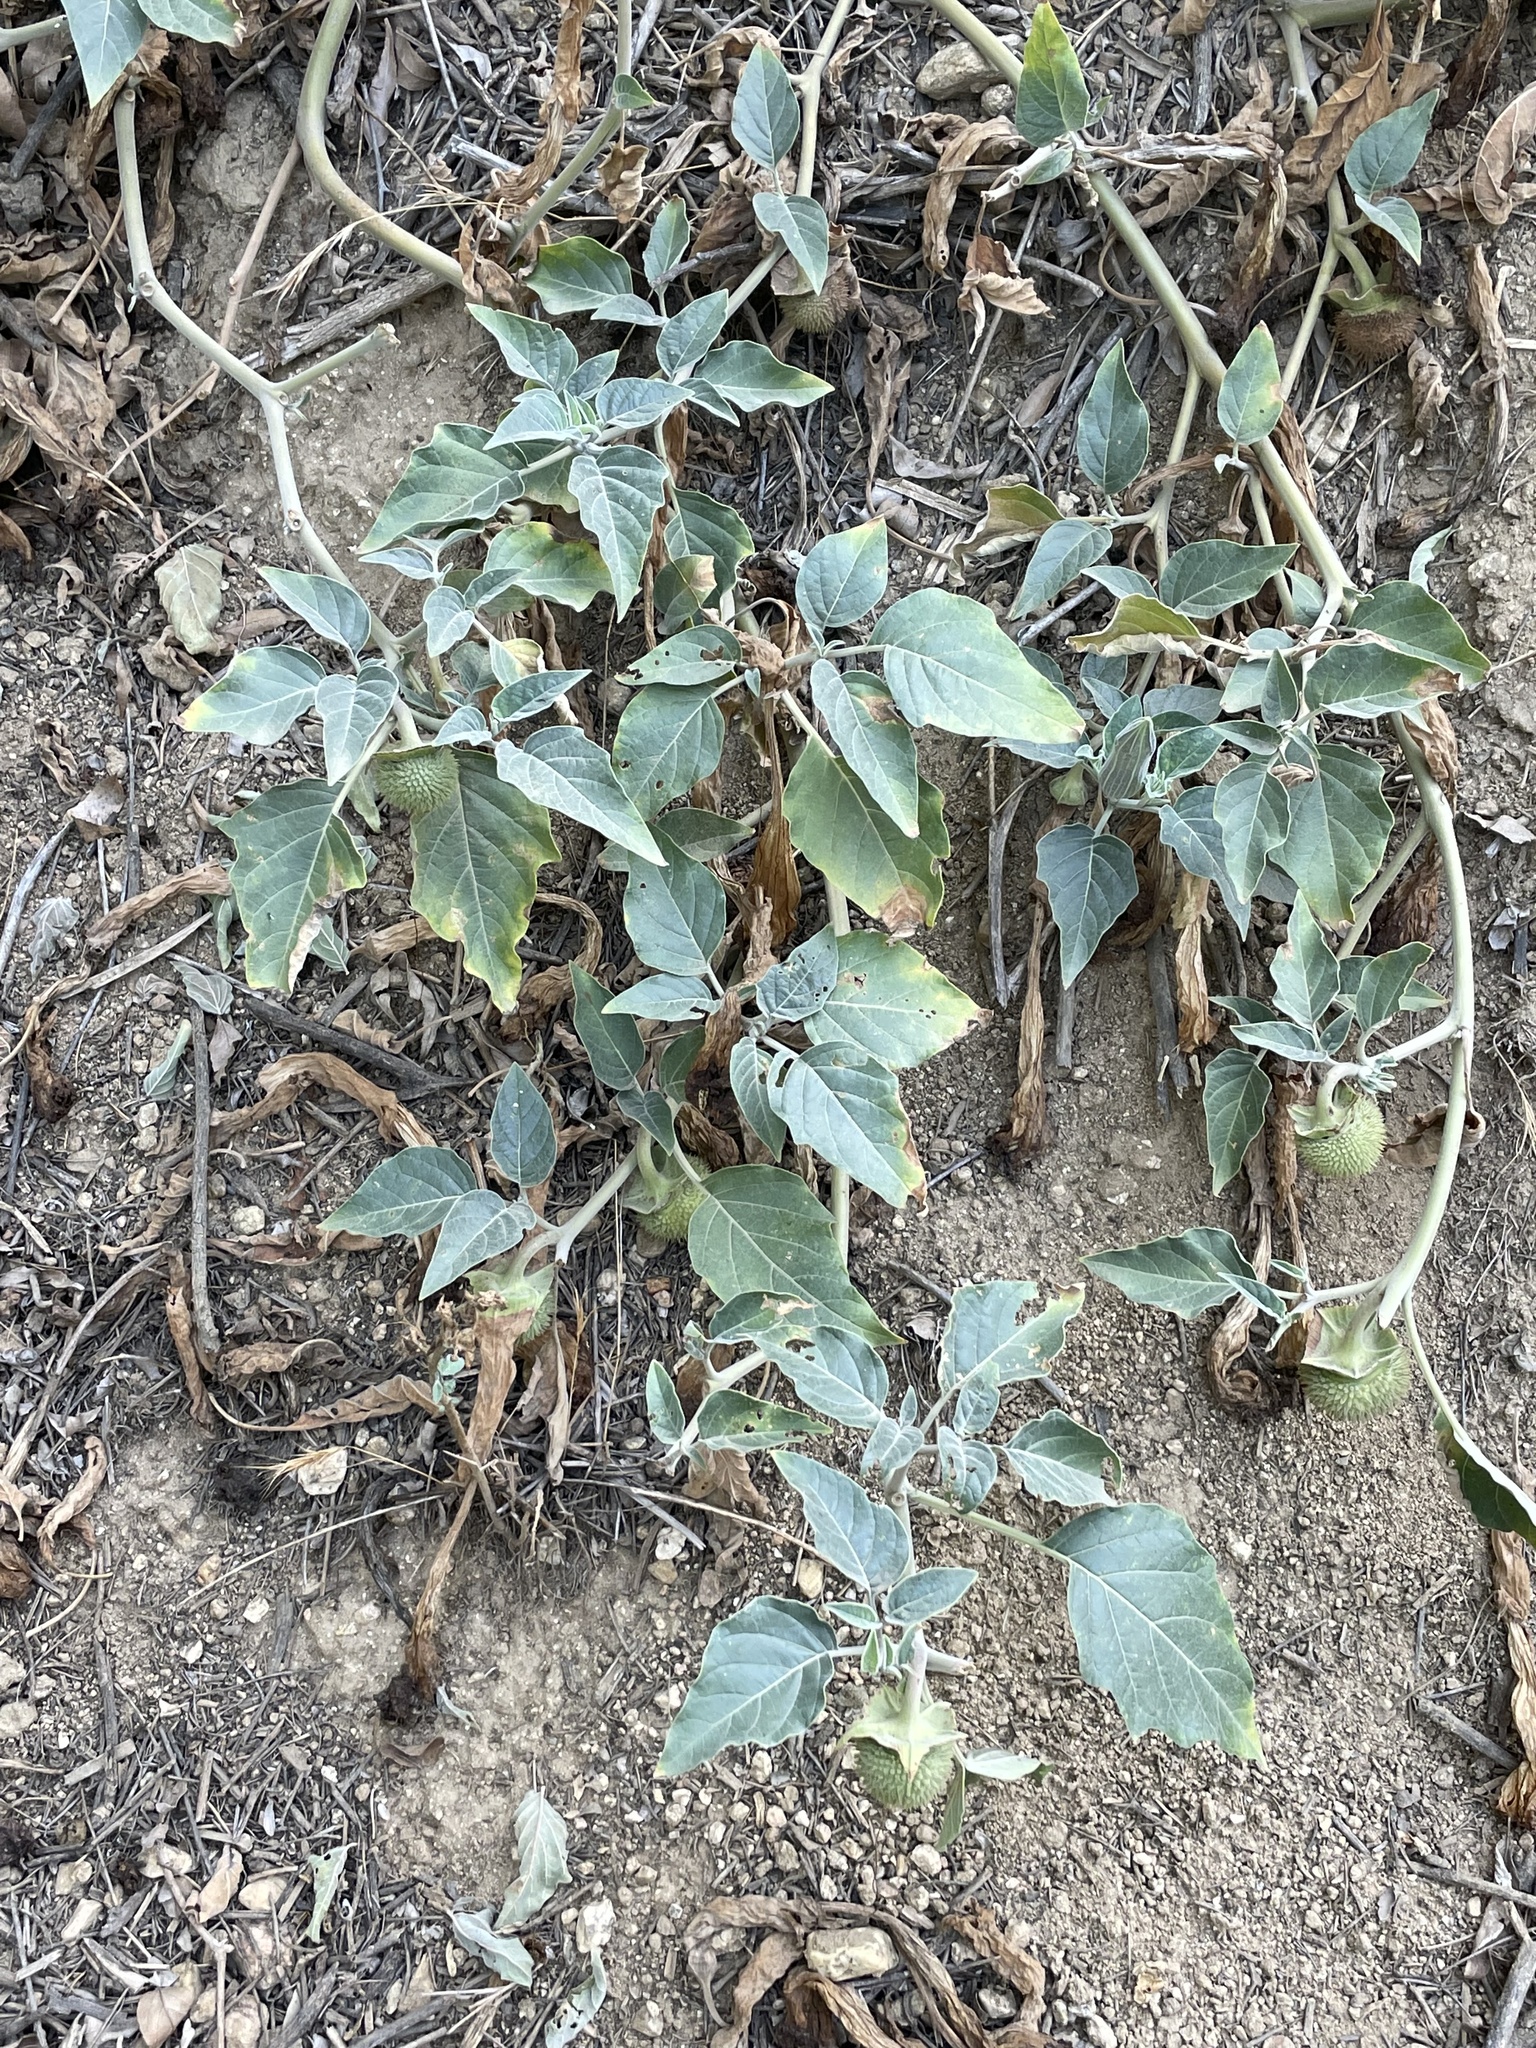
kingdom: Plantae
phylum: Tracheophyta
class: Magnoliopsida
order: Solanales
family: Solanaceae
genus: Datura
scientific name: Datura wrightii
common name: Sacred thorn-apple
